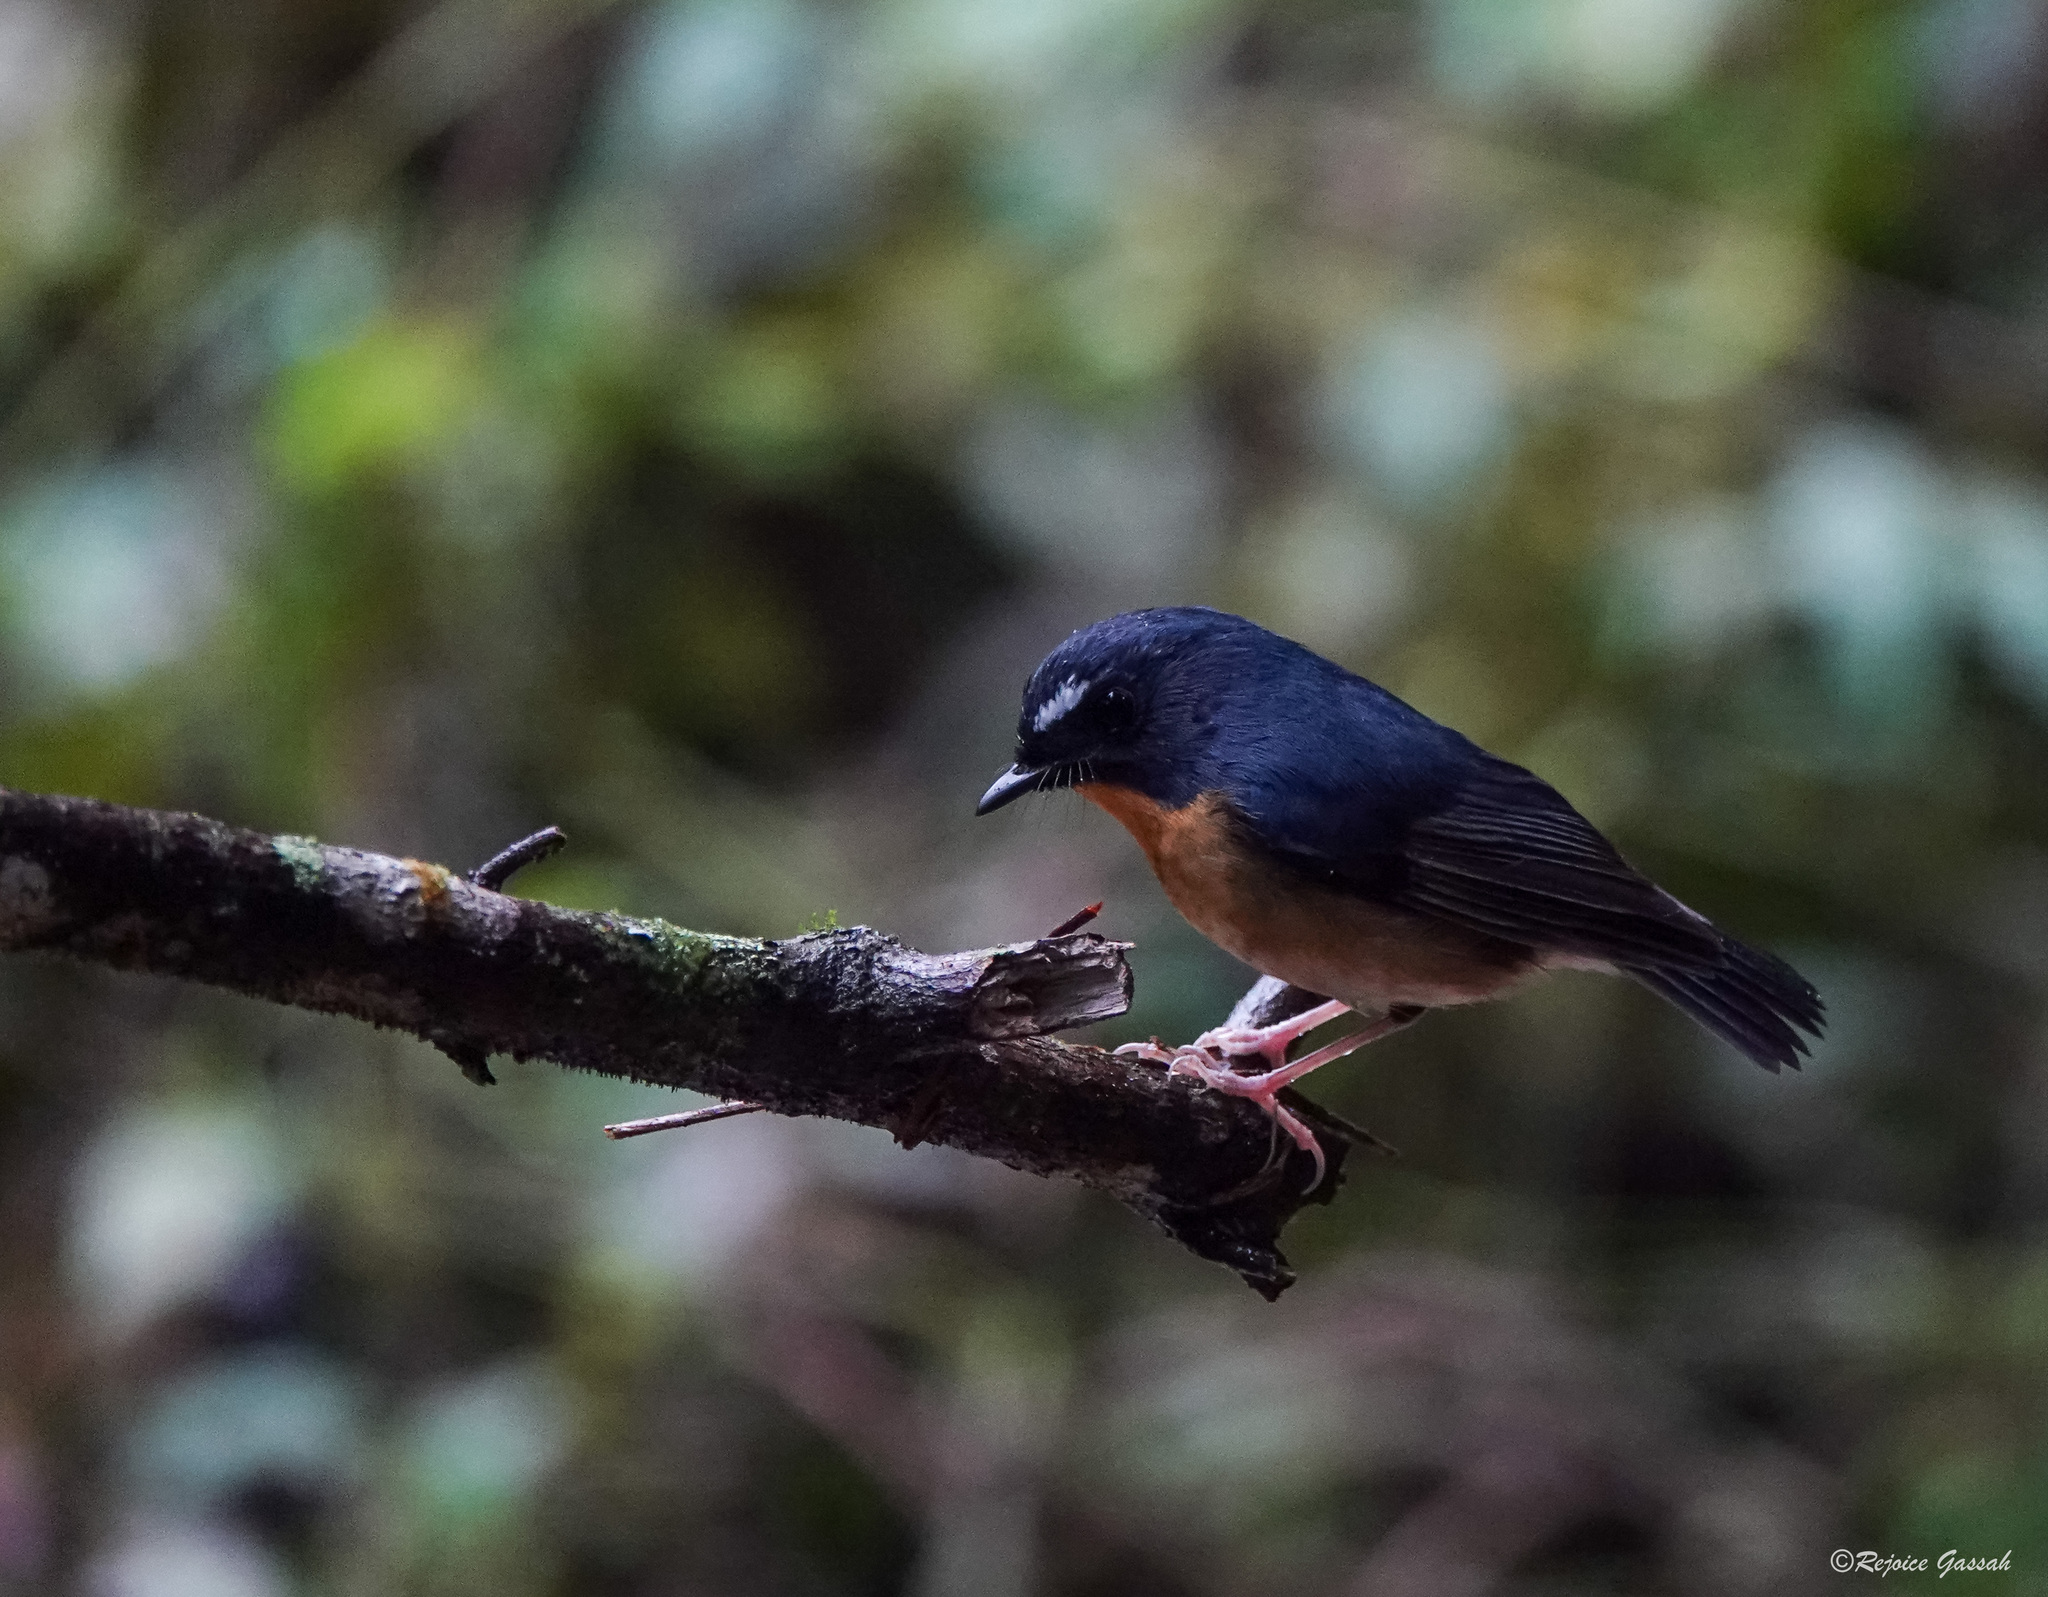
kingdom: Animalia
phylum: Chordata
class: Aves
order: Passeriformes
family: Muscicapidae
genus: Ficedula
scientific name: Ficedula hyperythra
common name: Snowy-browed flycatcher
